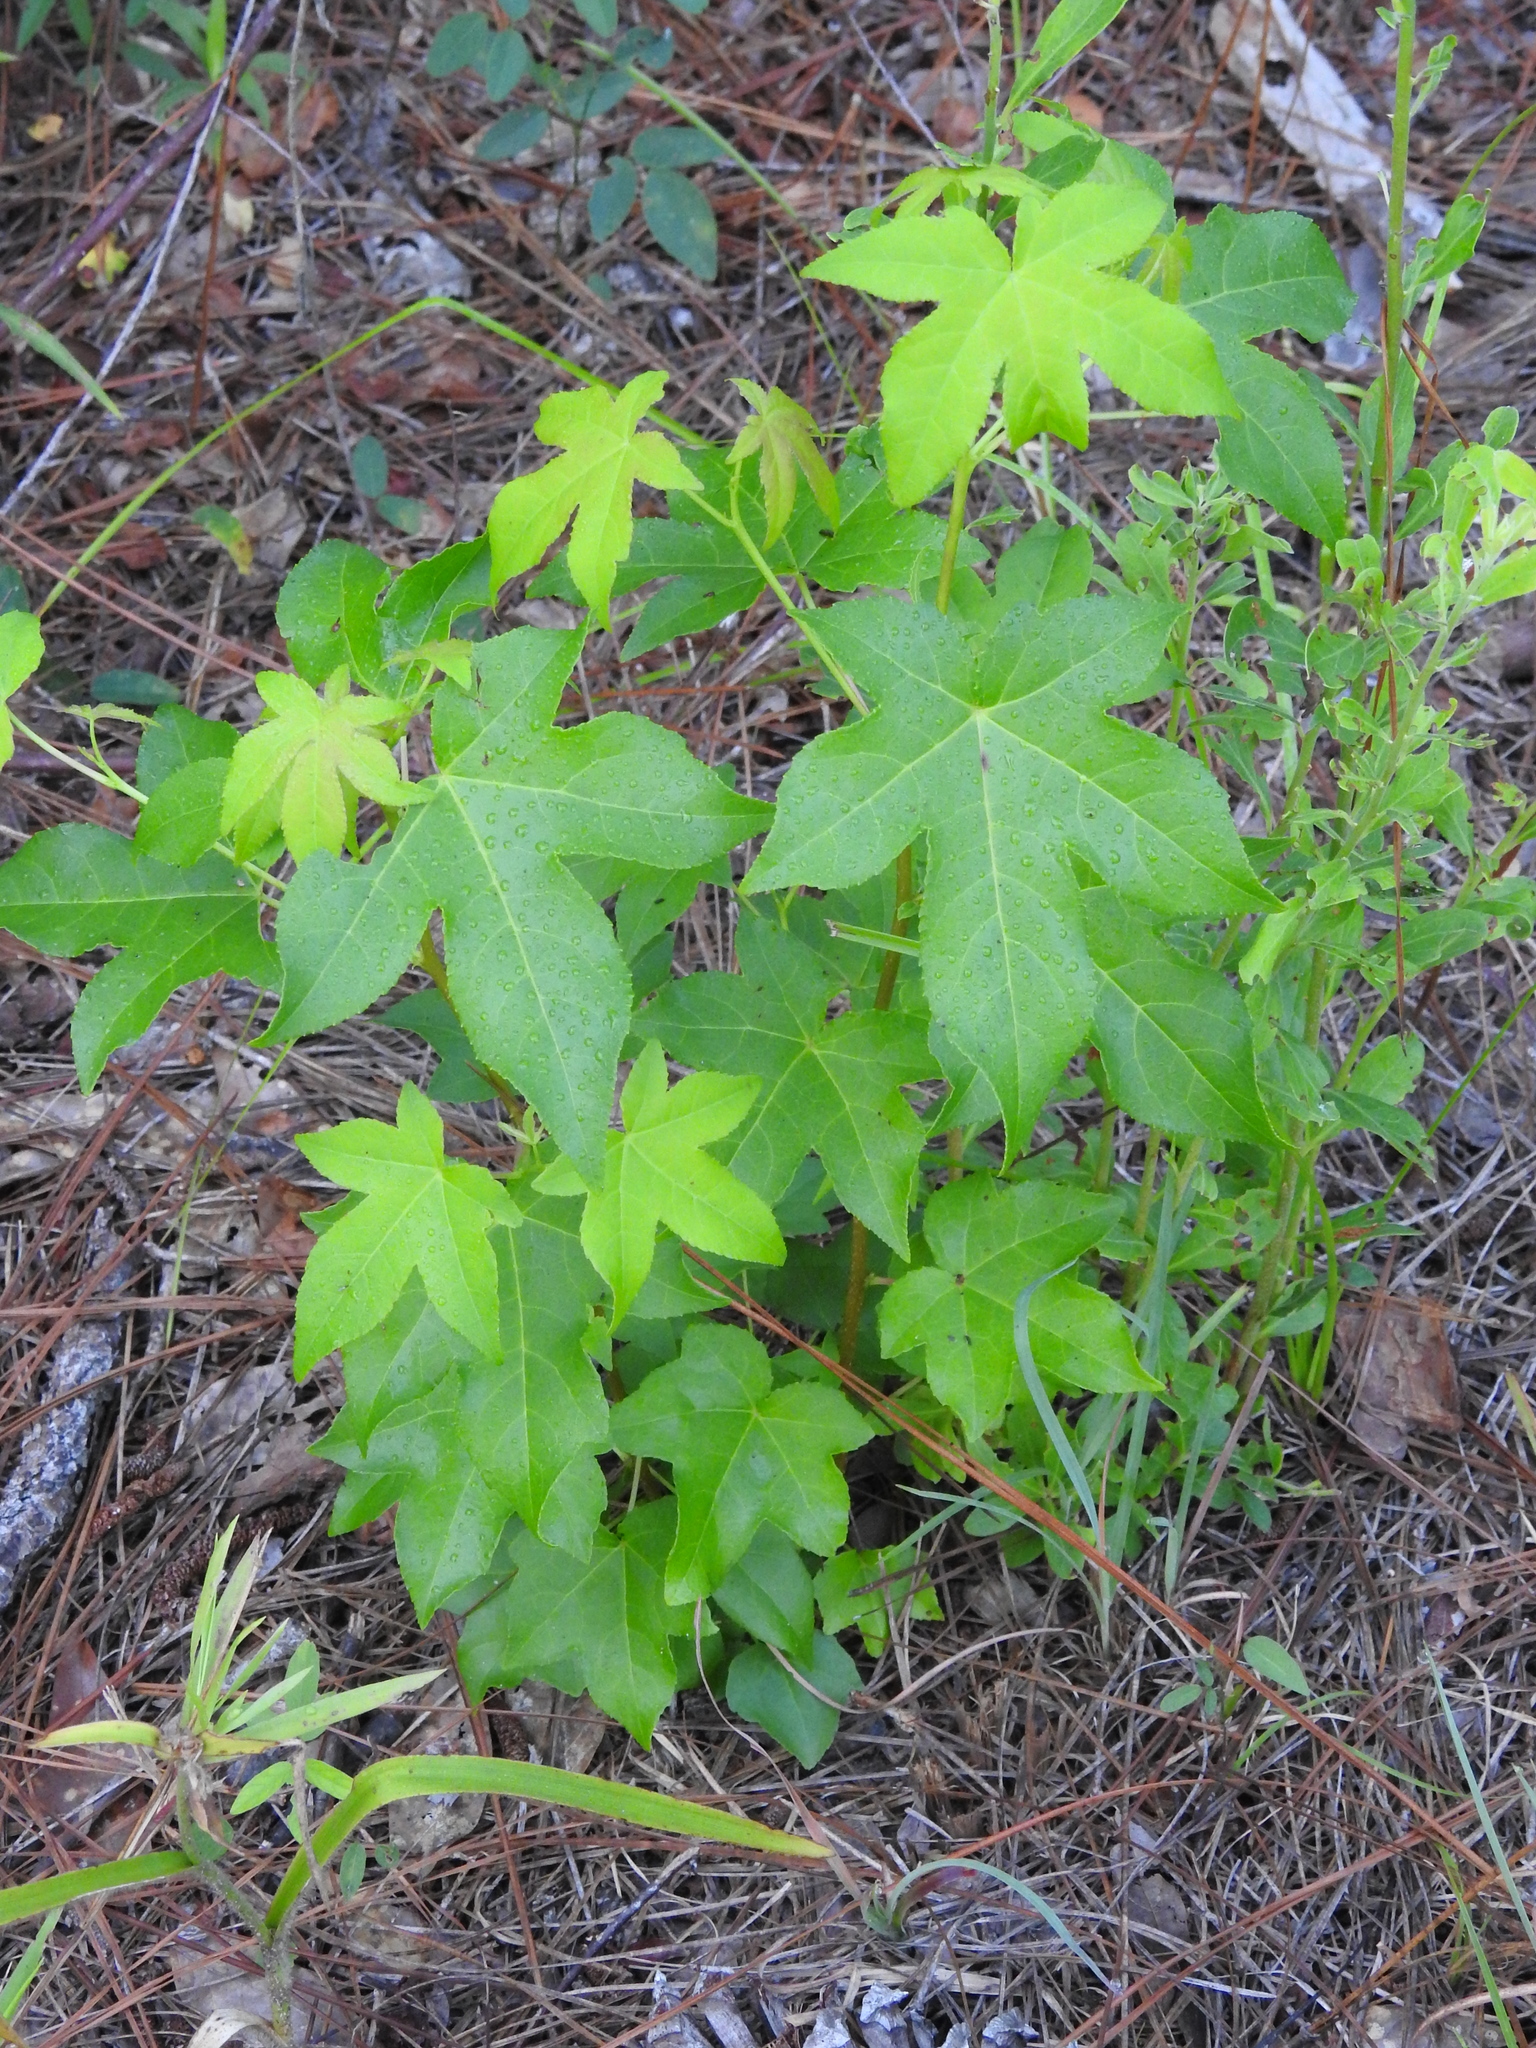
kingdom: Plantae
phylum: Tracheophyta
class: Magnoliopsida
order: Saxifragales
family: Altingiaceae
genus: Liquidambar
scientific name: Liquidambar styraciflua
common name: Sweet gum
